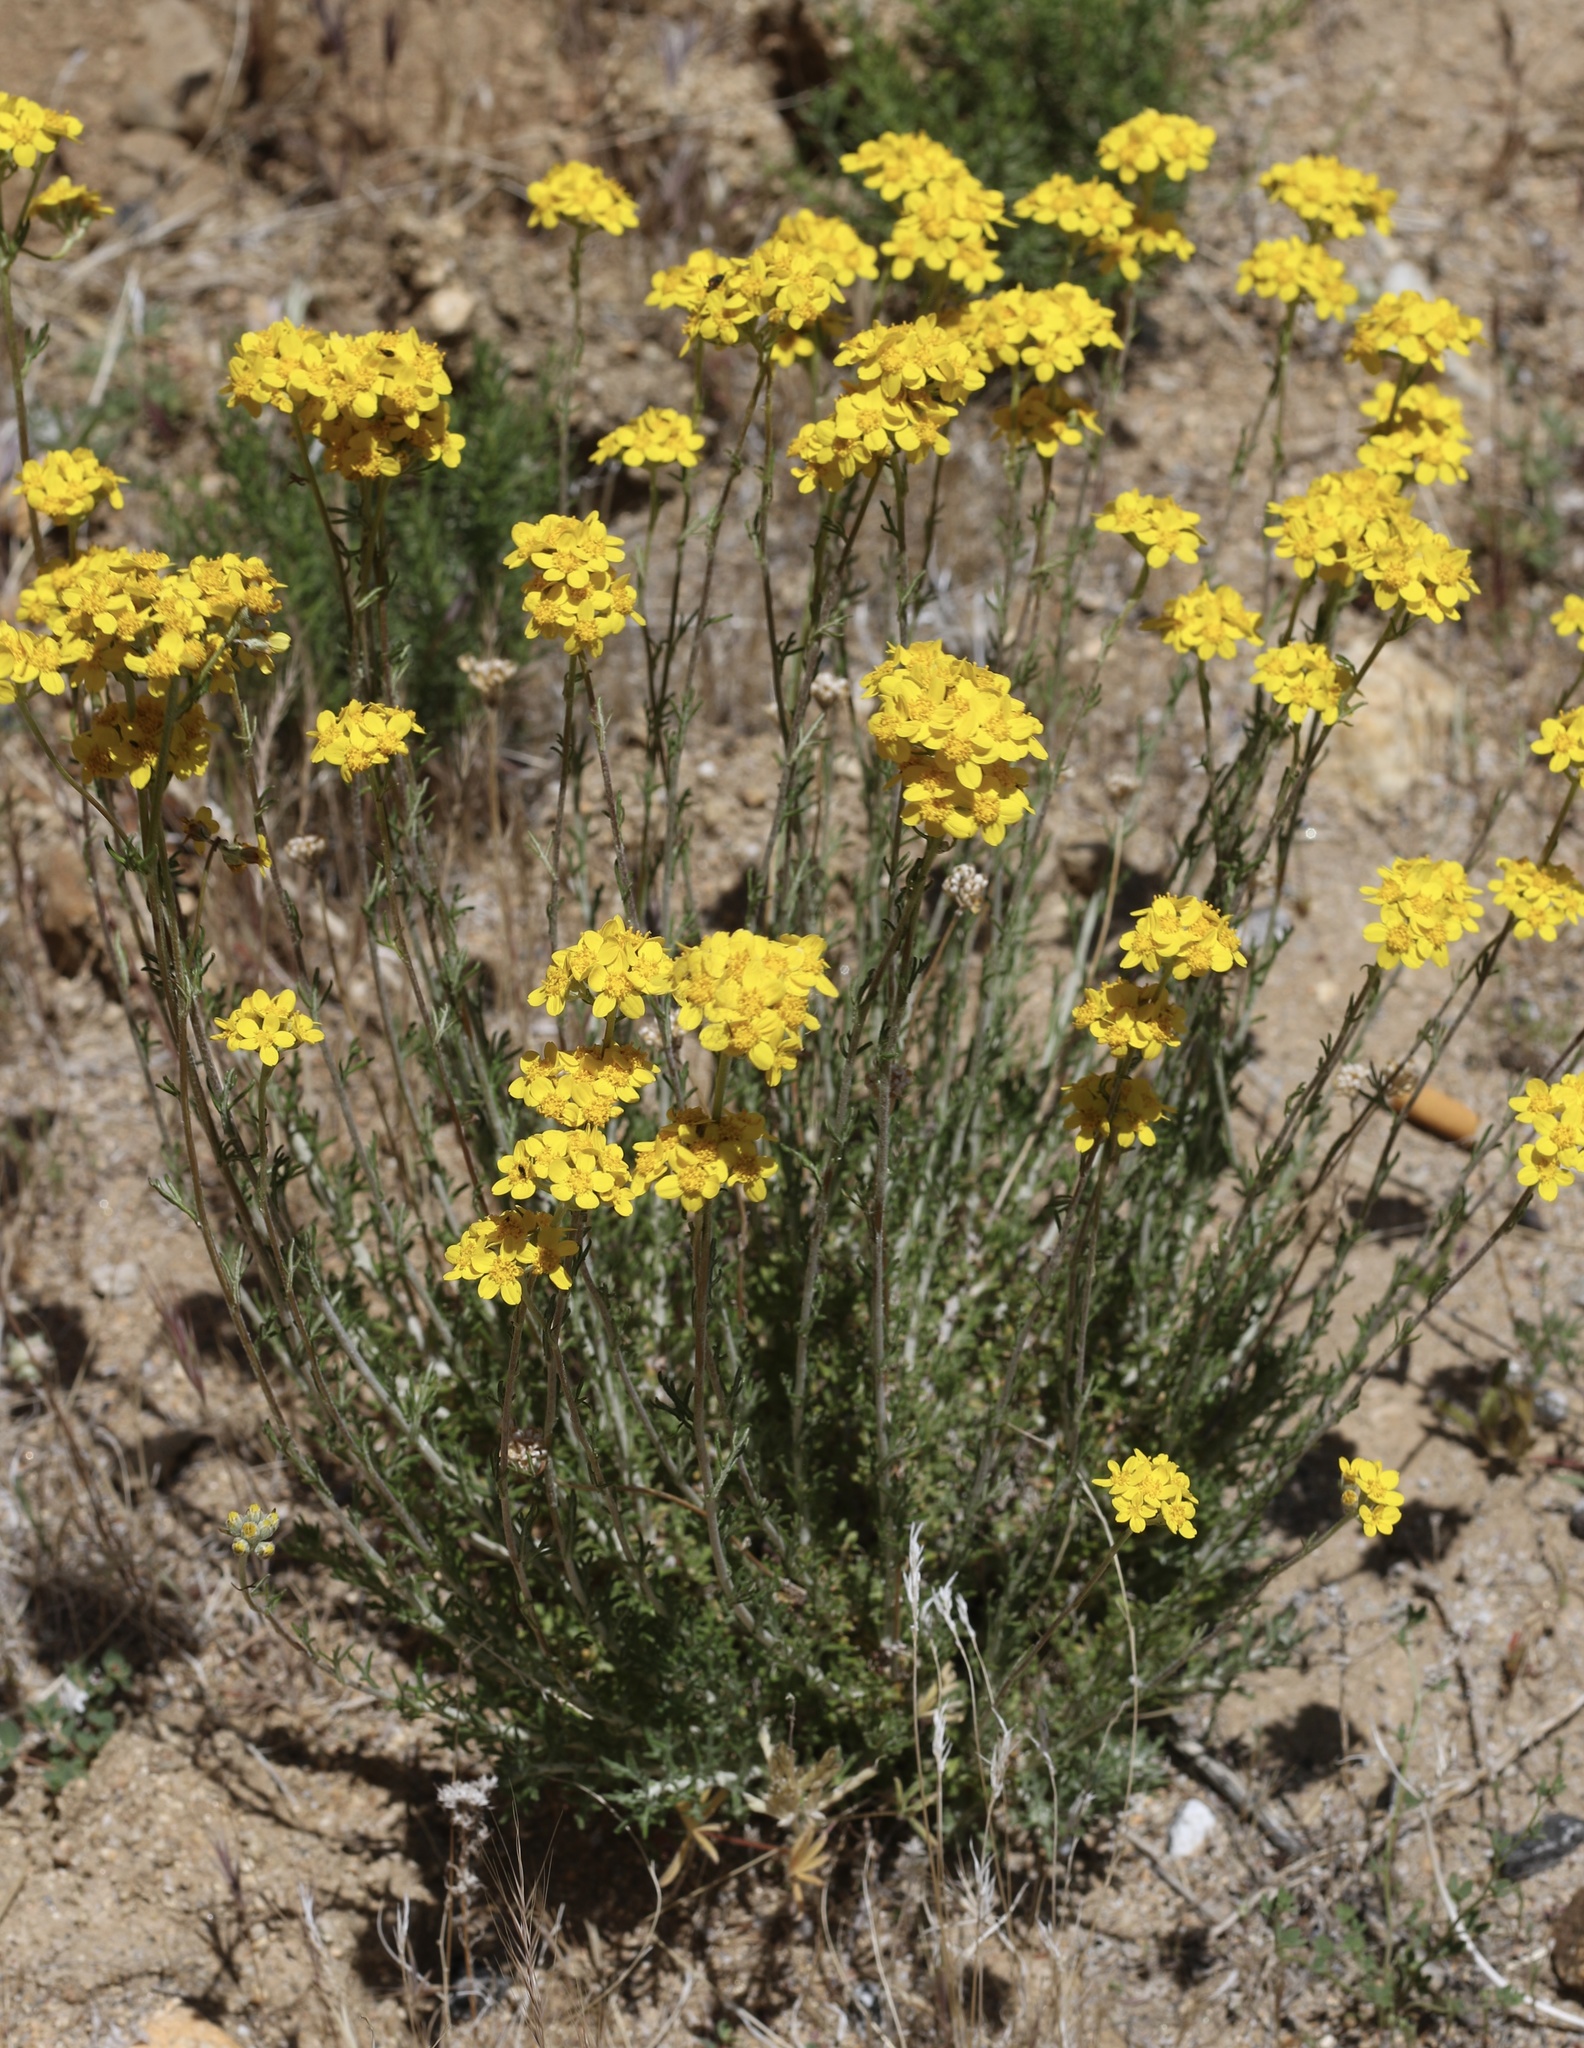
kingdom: Plantae
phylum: Tracheophyta
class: Magnoliopsida
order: Asterales
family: Asteraceae
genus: Eriophyllum
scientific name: Eriophyllum confertiflorum
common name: Golden-yarrow
